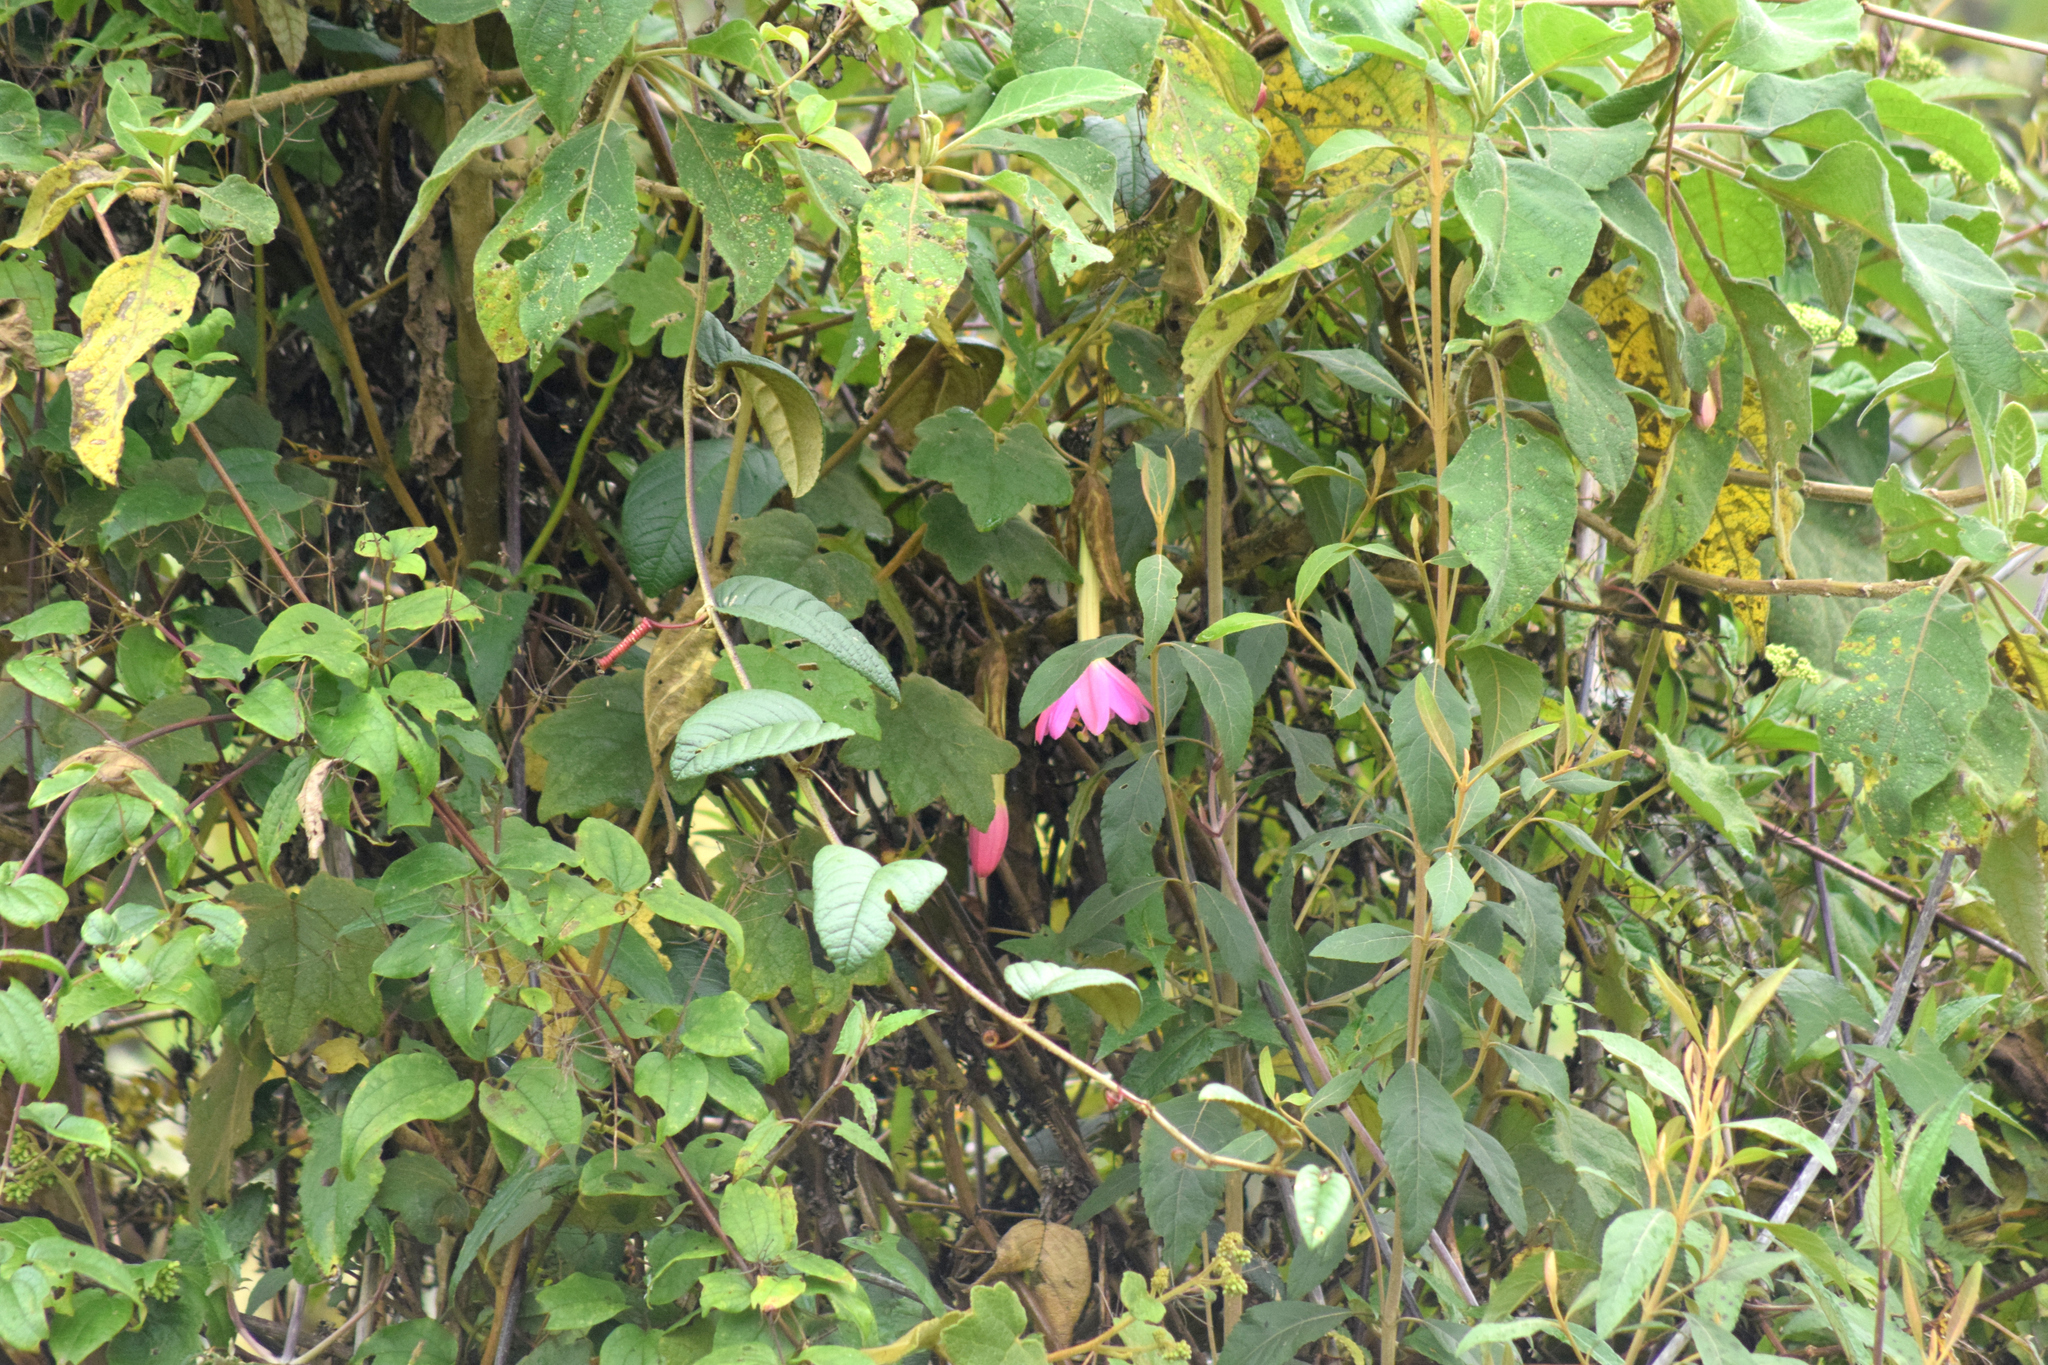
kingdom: Plantae
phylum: Tracheophyta
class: Magnoliopsida
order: Malpighiales
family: Passifloraceae
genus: Passiflora
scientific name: Passiflora lanata
